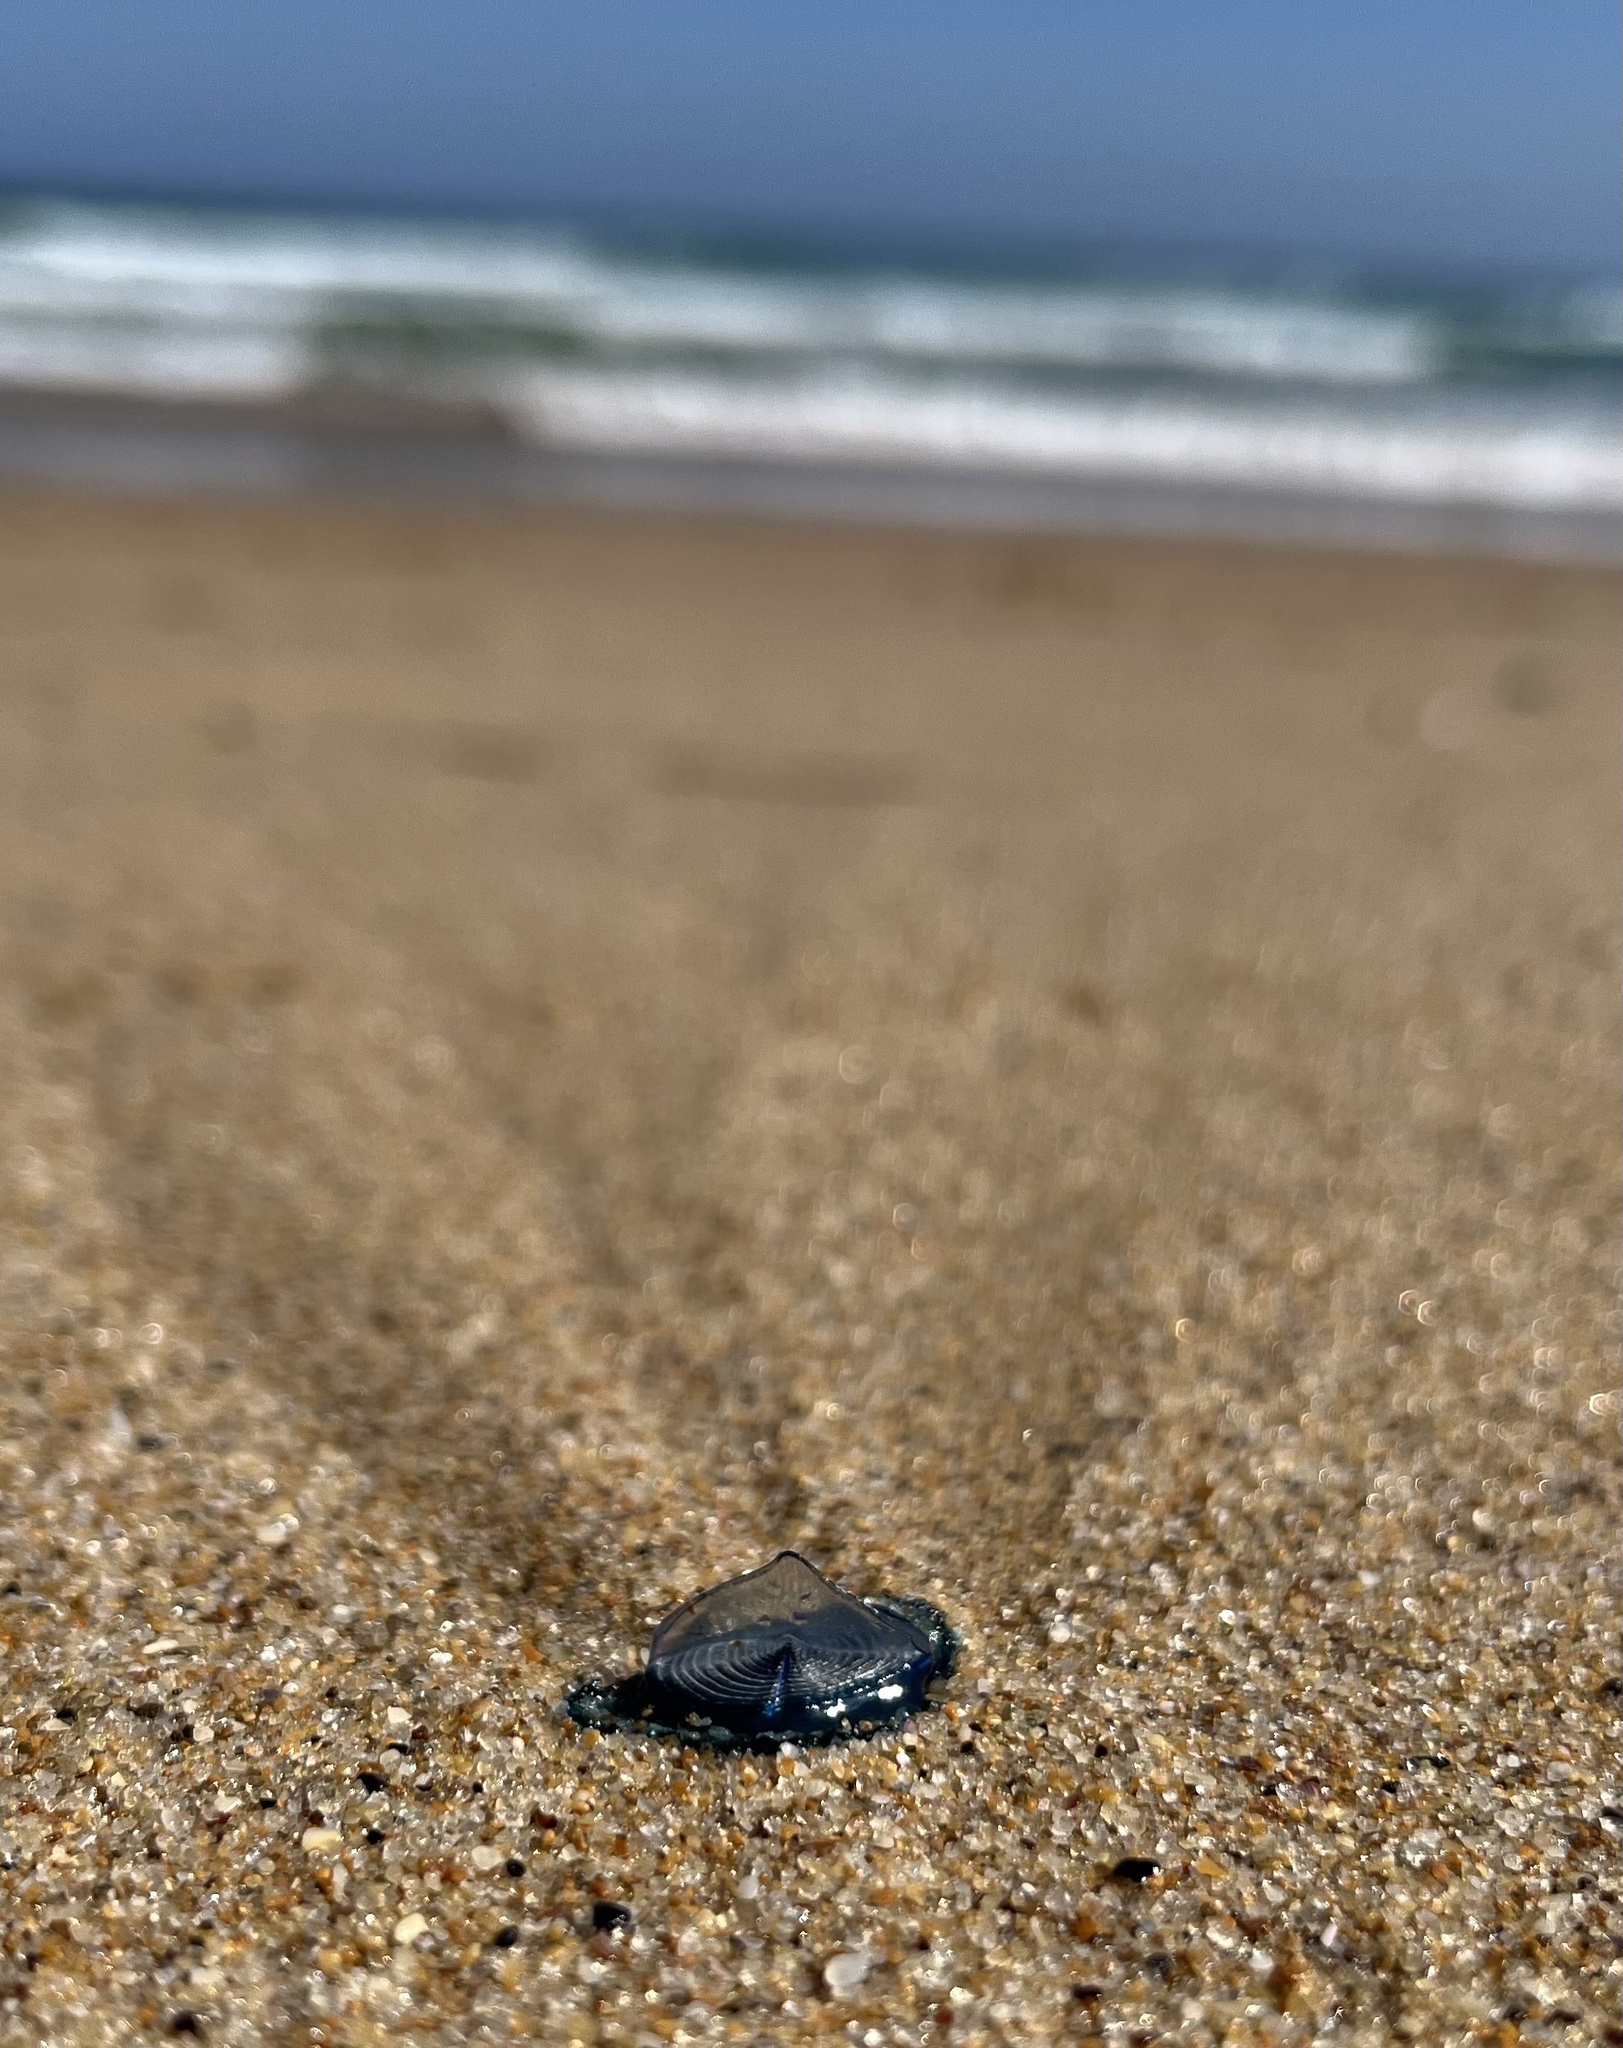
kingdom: Animalia
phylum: Cnidaria
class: Hydrozoa
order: Anthoathecata
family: Porpitidae
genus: Velella
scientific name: Velella velella
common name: By-the-wind-sailor
